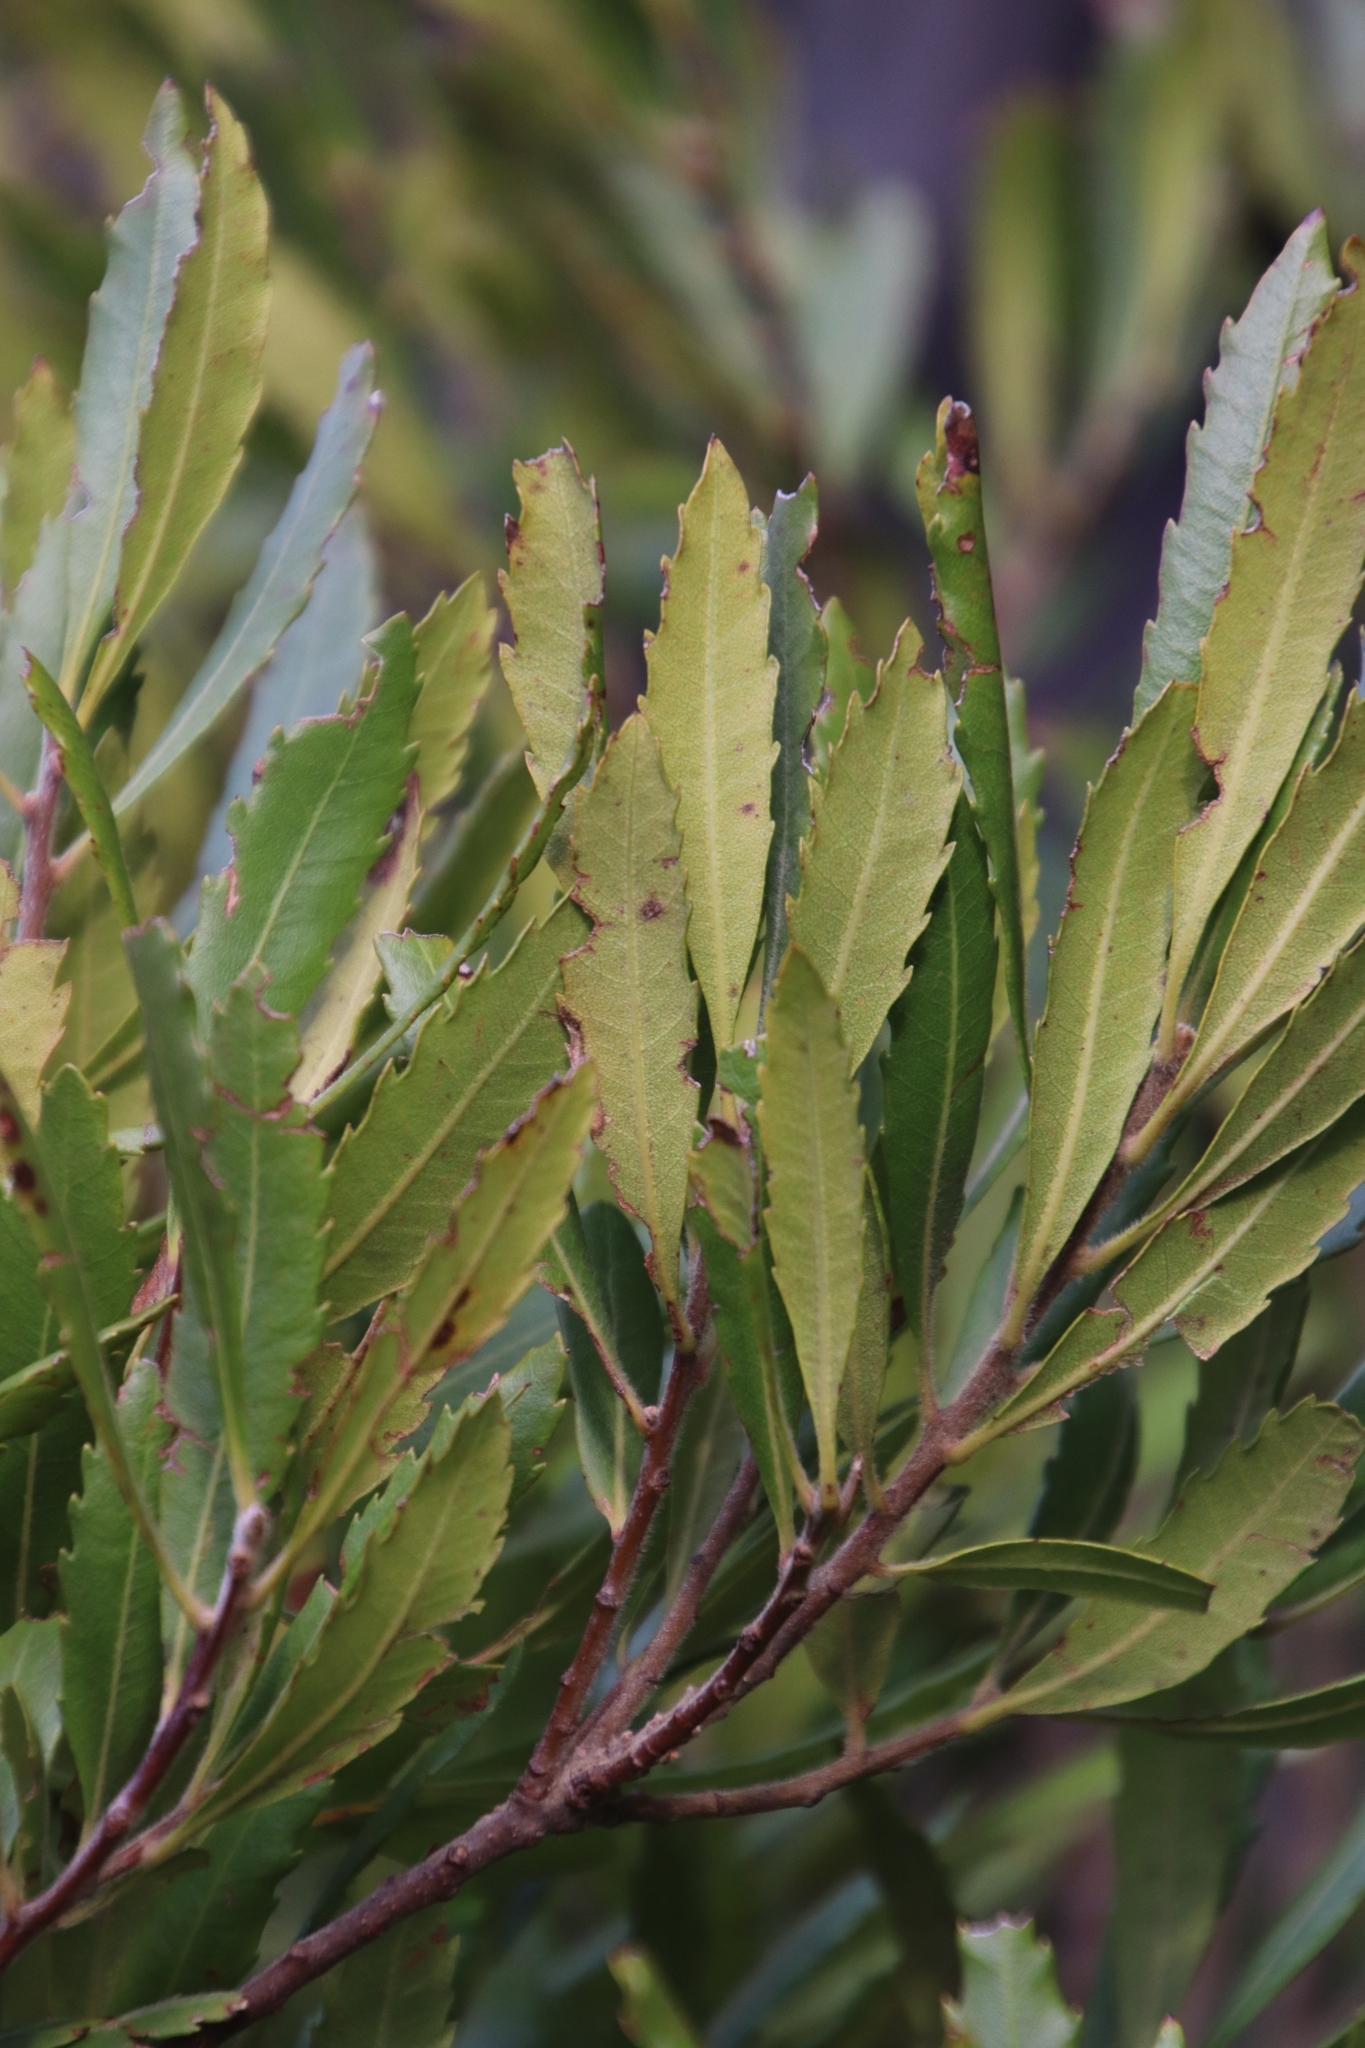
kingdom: Plantae
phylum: Tracheophyta
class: Magnoliopsida
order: Fagales
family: Myricaceae
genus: Morella
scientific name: Morella serrata
